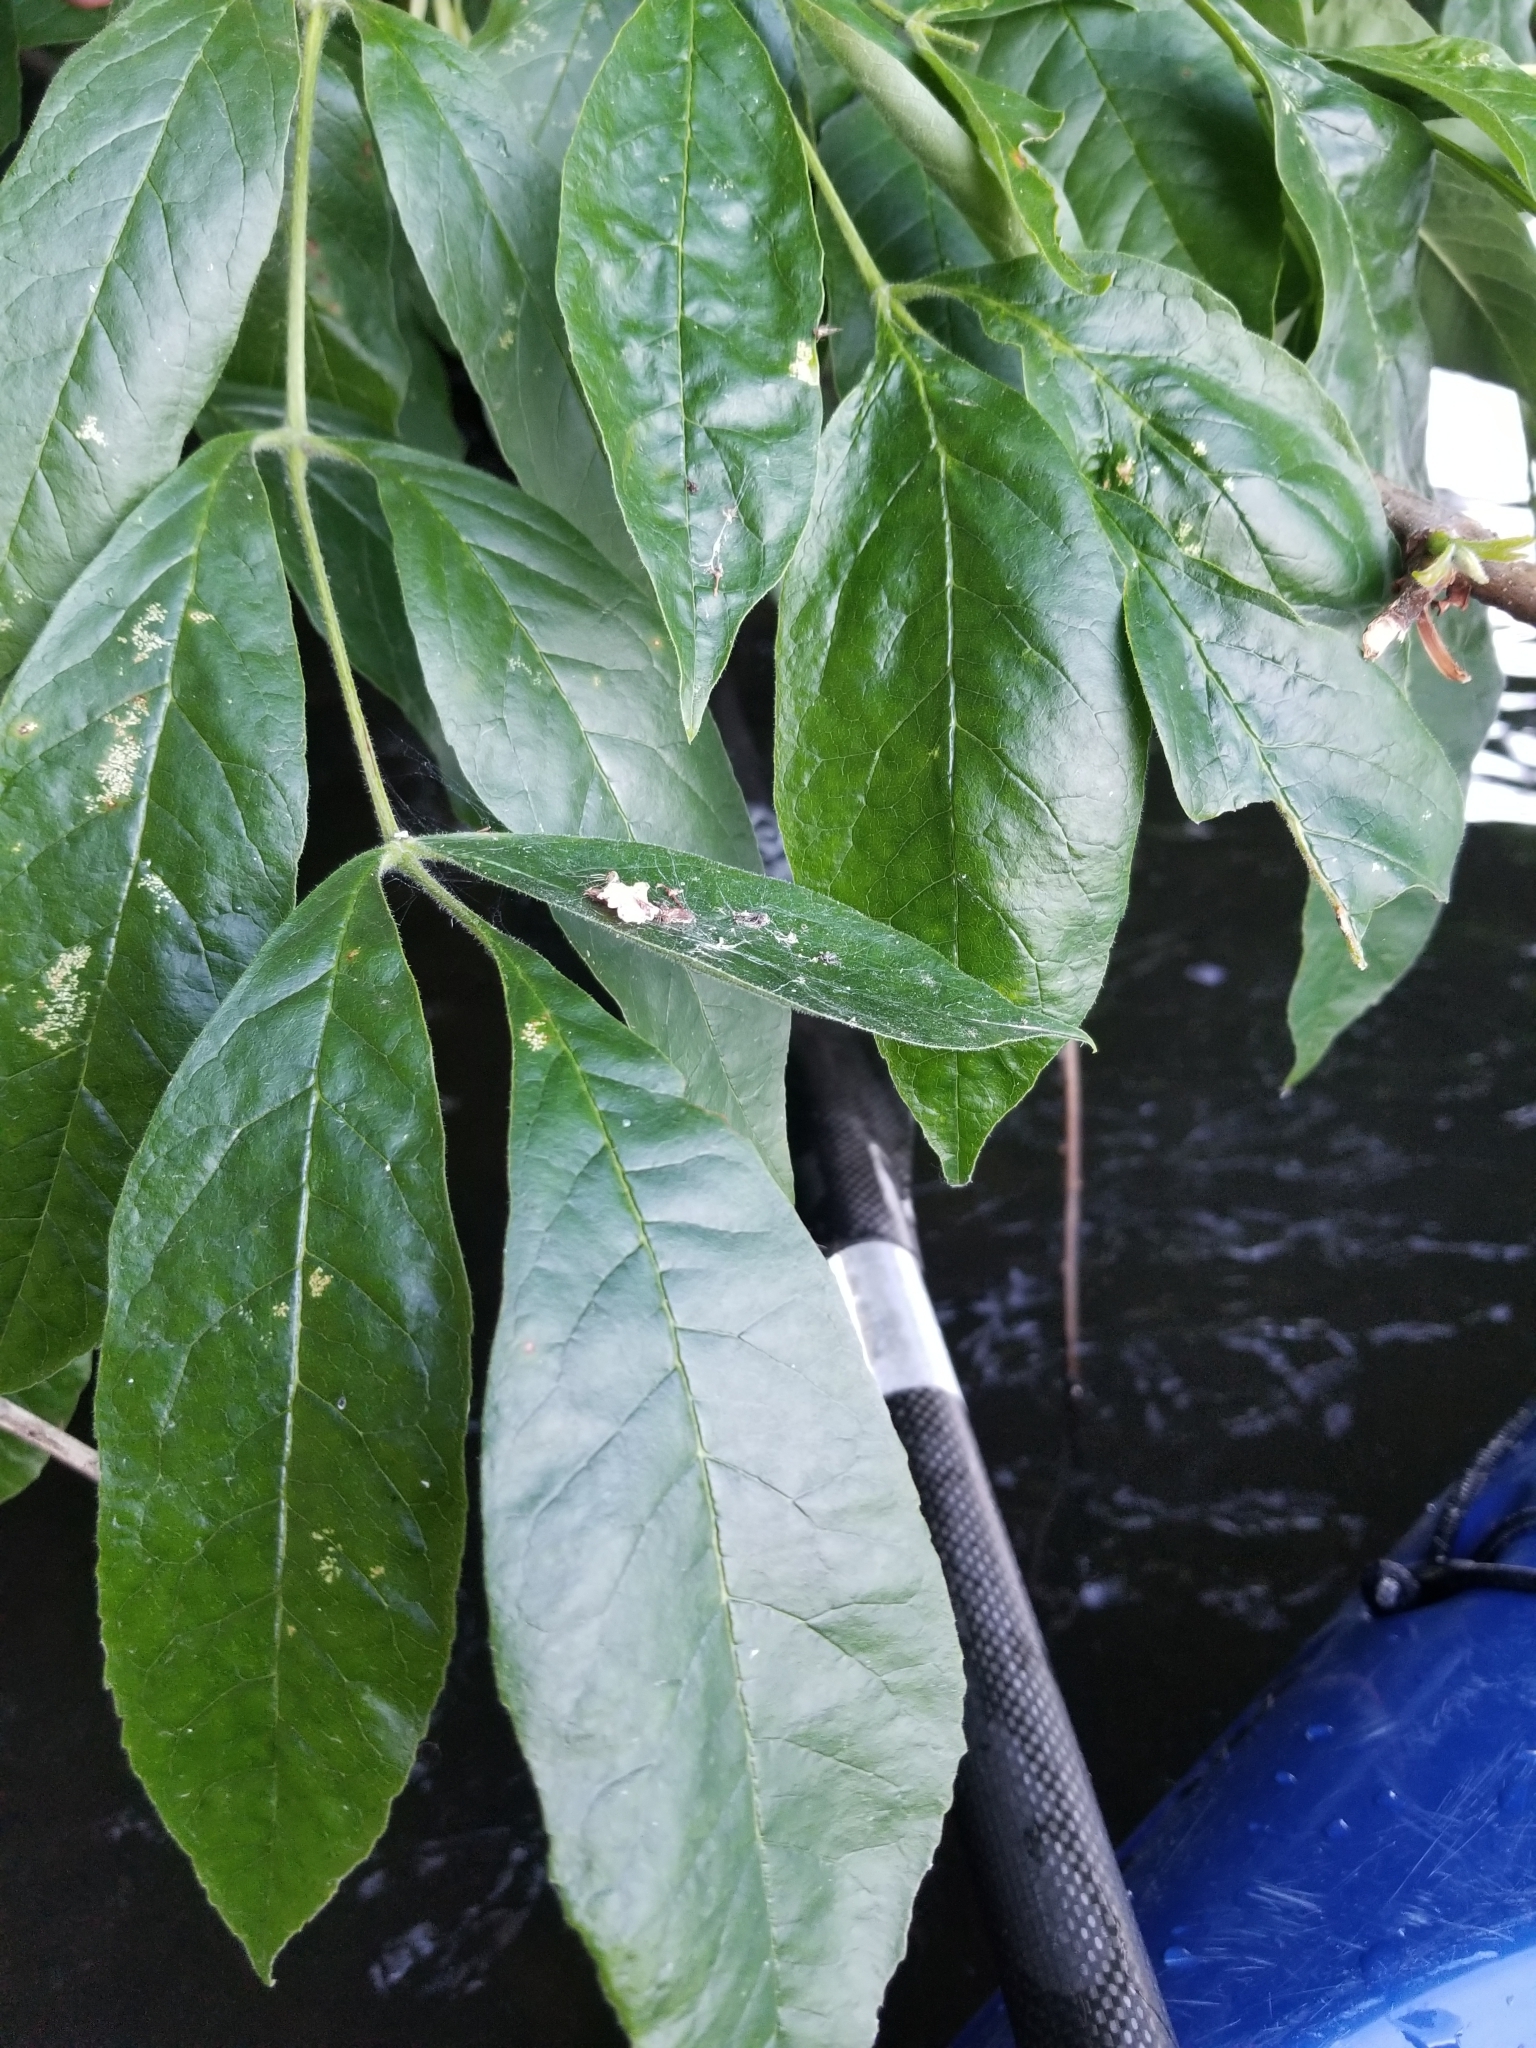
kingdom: Plantae
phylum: Tracheophyta
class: Magnoliopsida
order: Lamiales
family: Oleaceae
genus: Fraxinus
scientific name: Fraxinus latifolia
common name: Oregon ash
